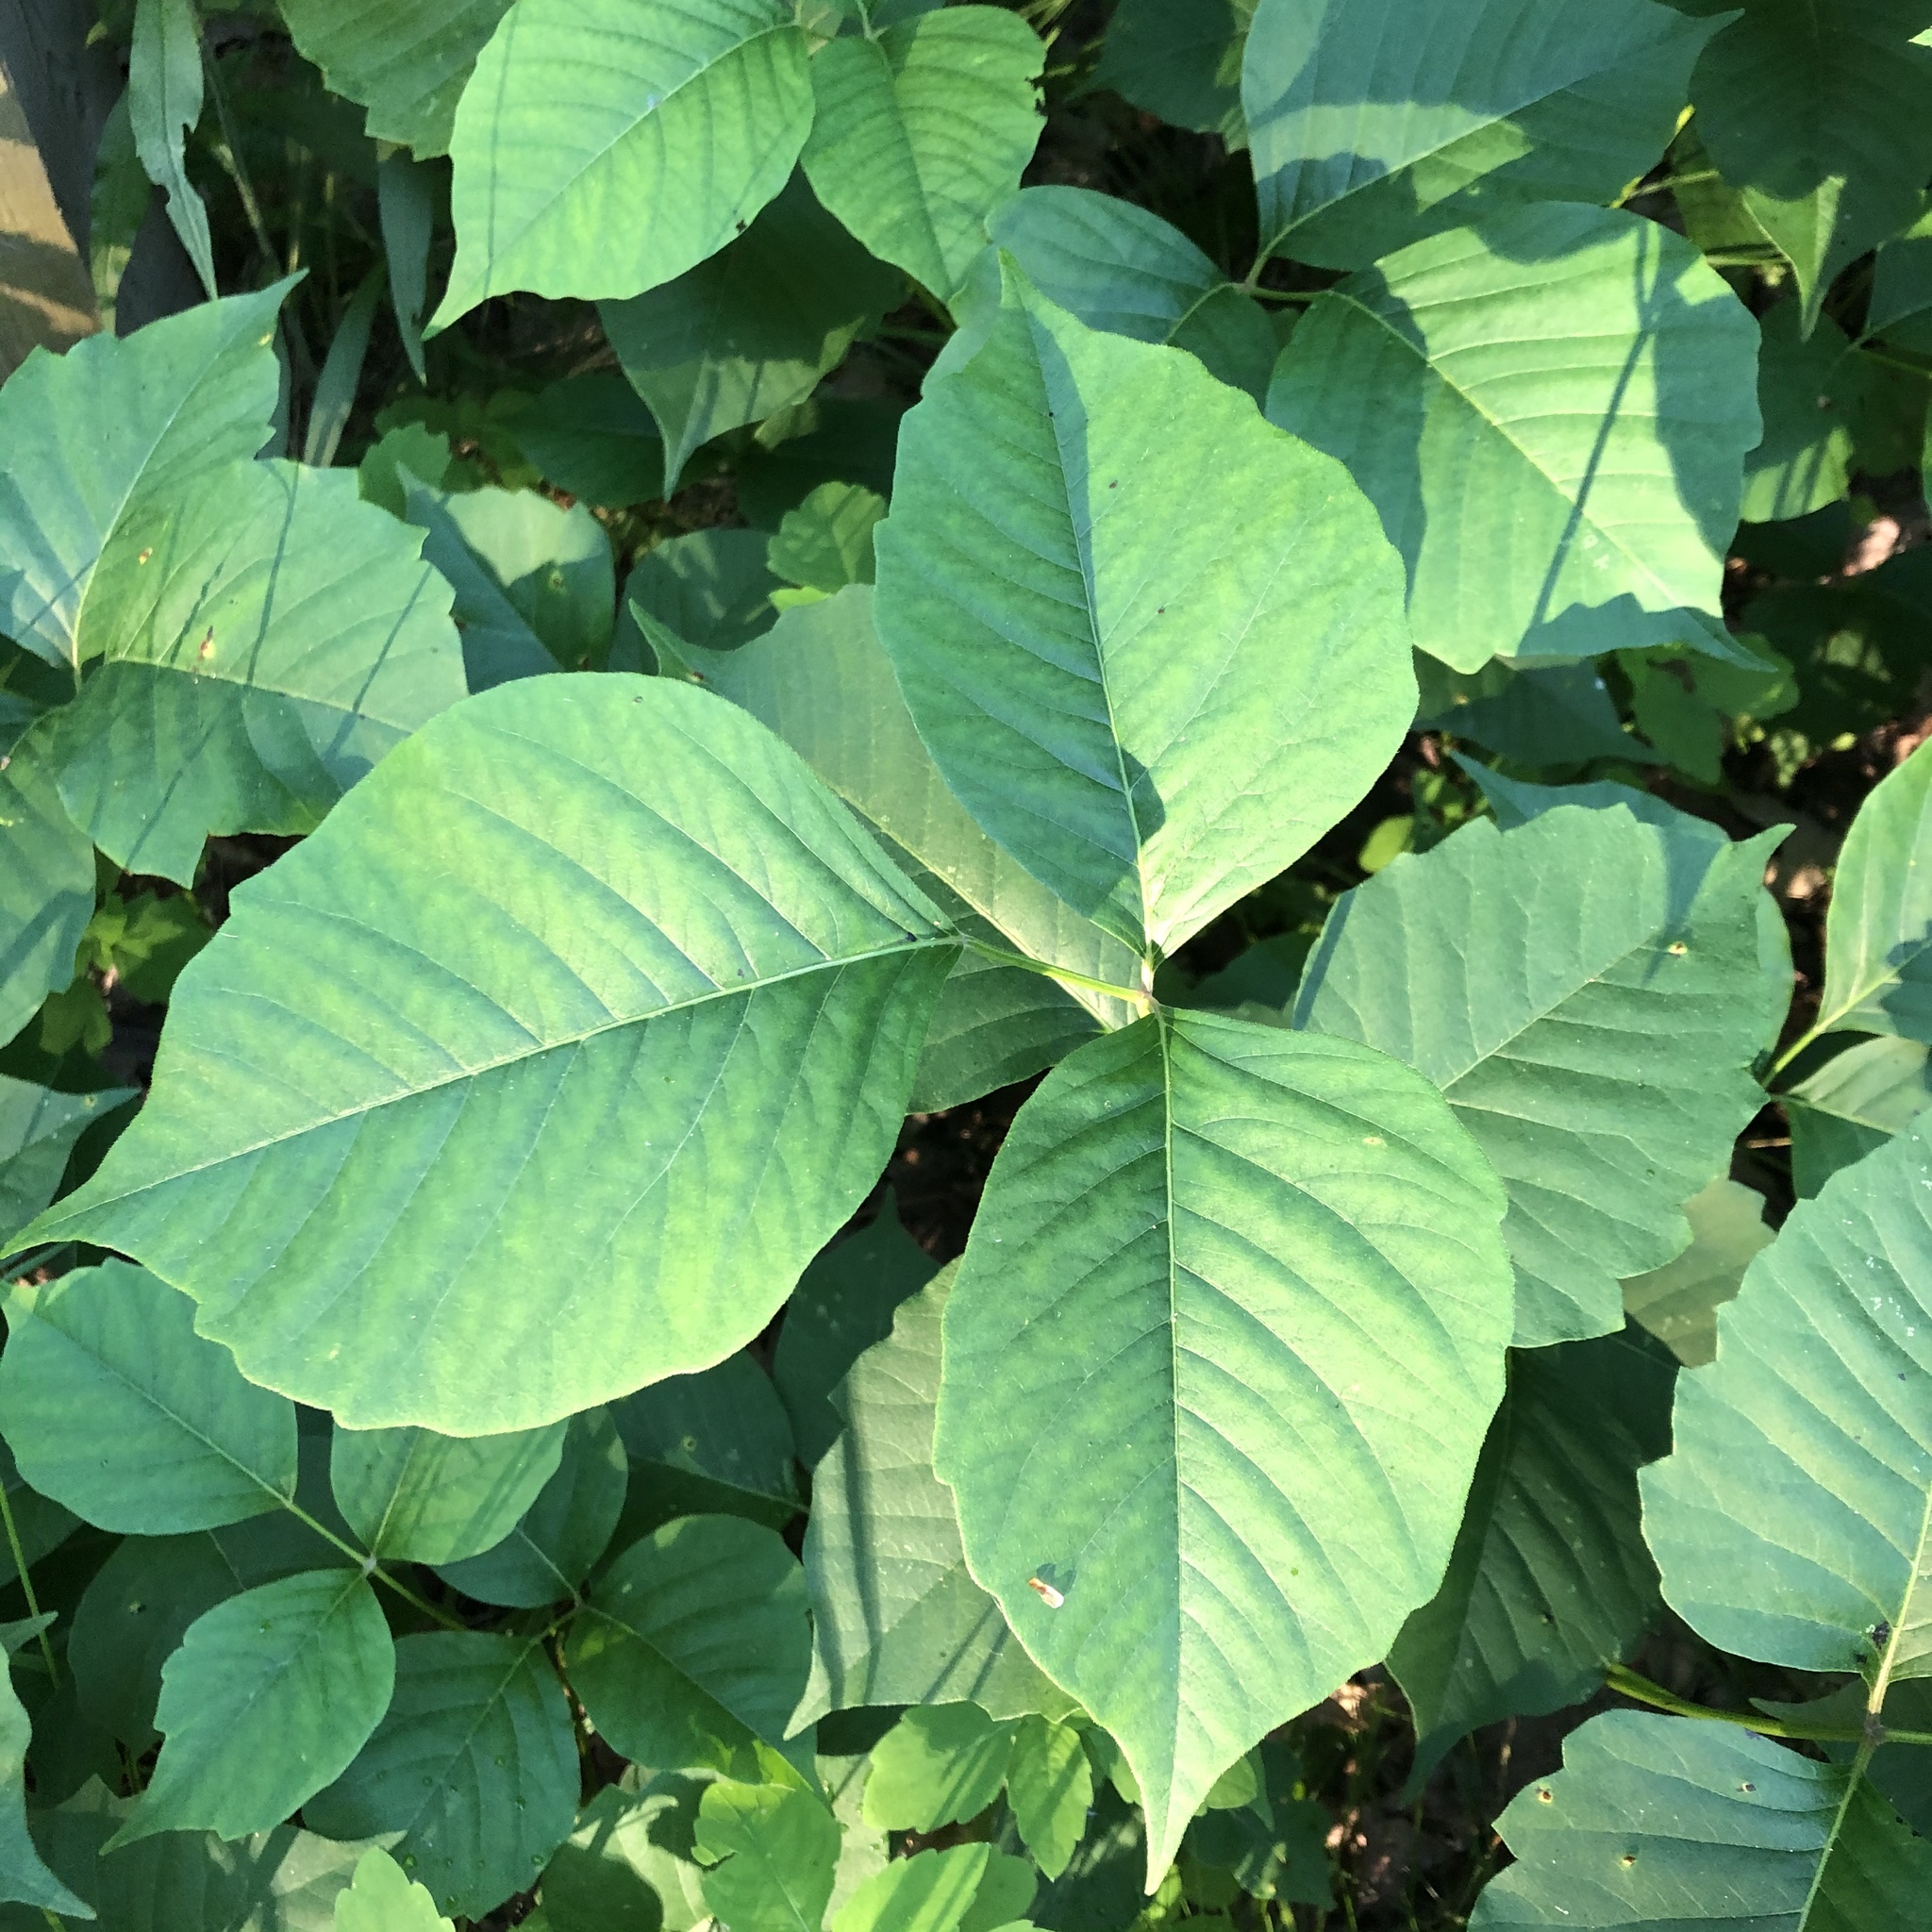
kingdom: Plantae
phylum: Tracheophyta
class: Magnoliopsida
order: Sapindales
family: Anacardiaceae
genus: Toxicodendron
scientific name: Toxicodendron rydbergii
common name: Rydberg's poison-ivy
